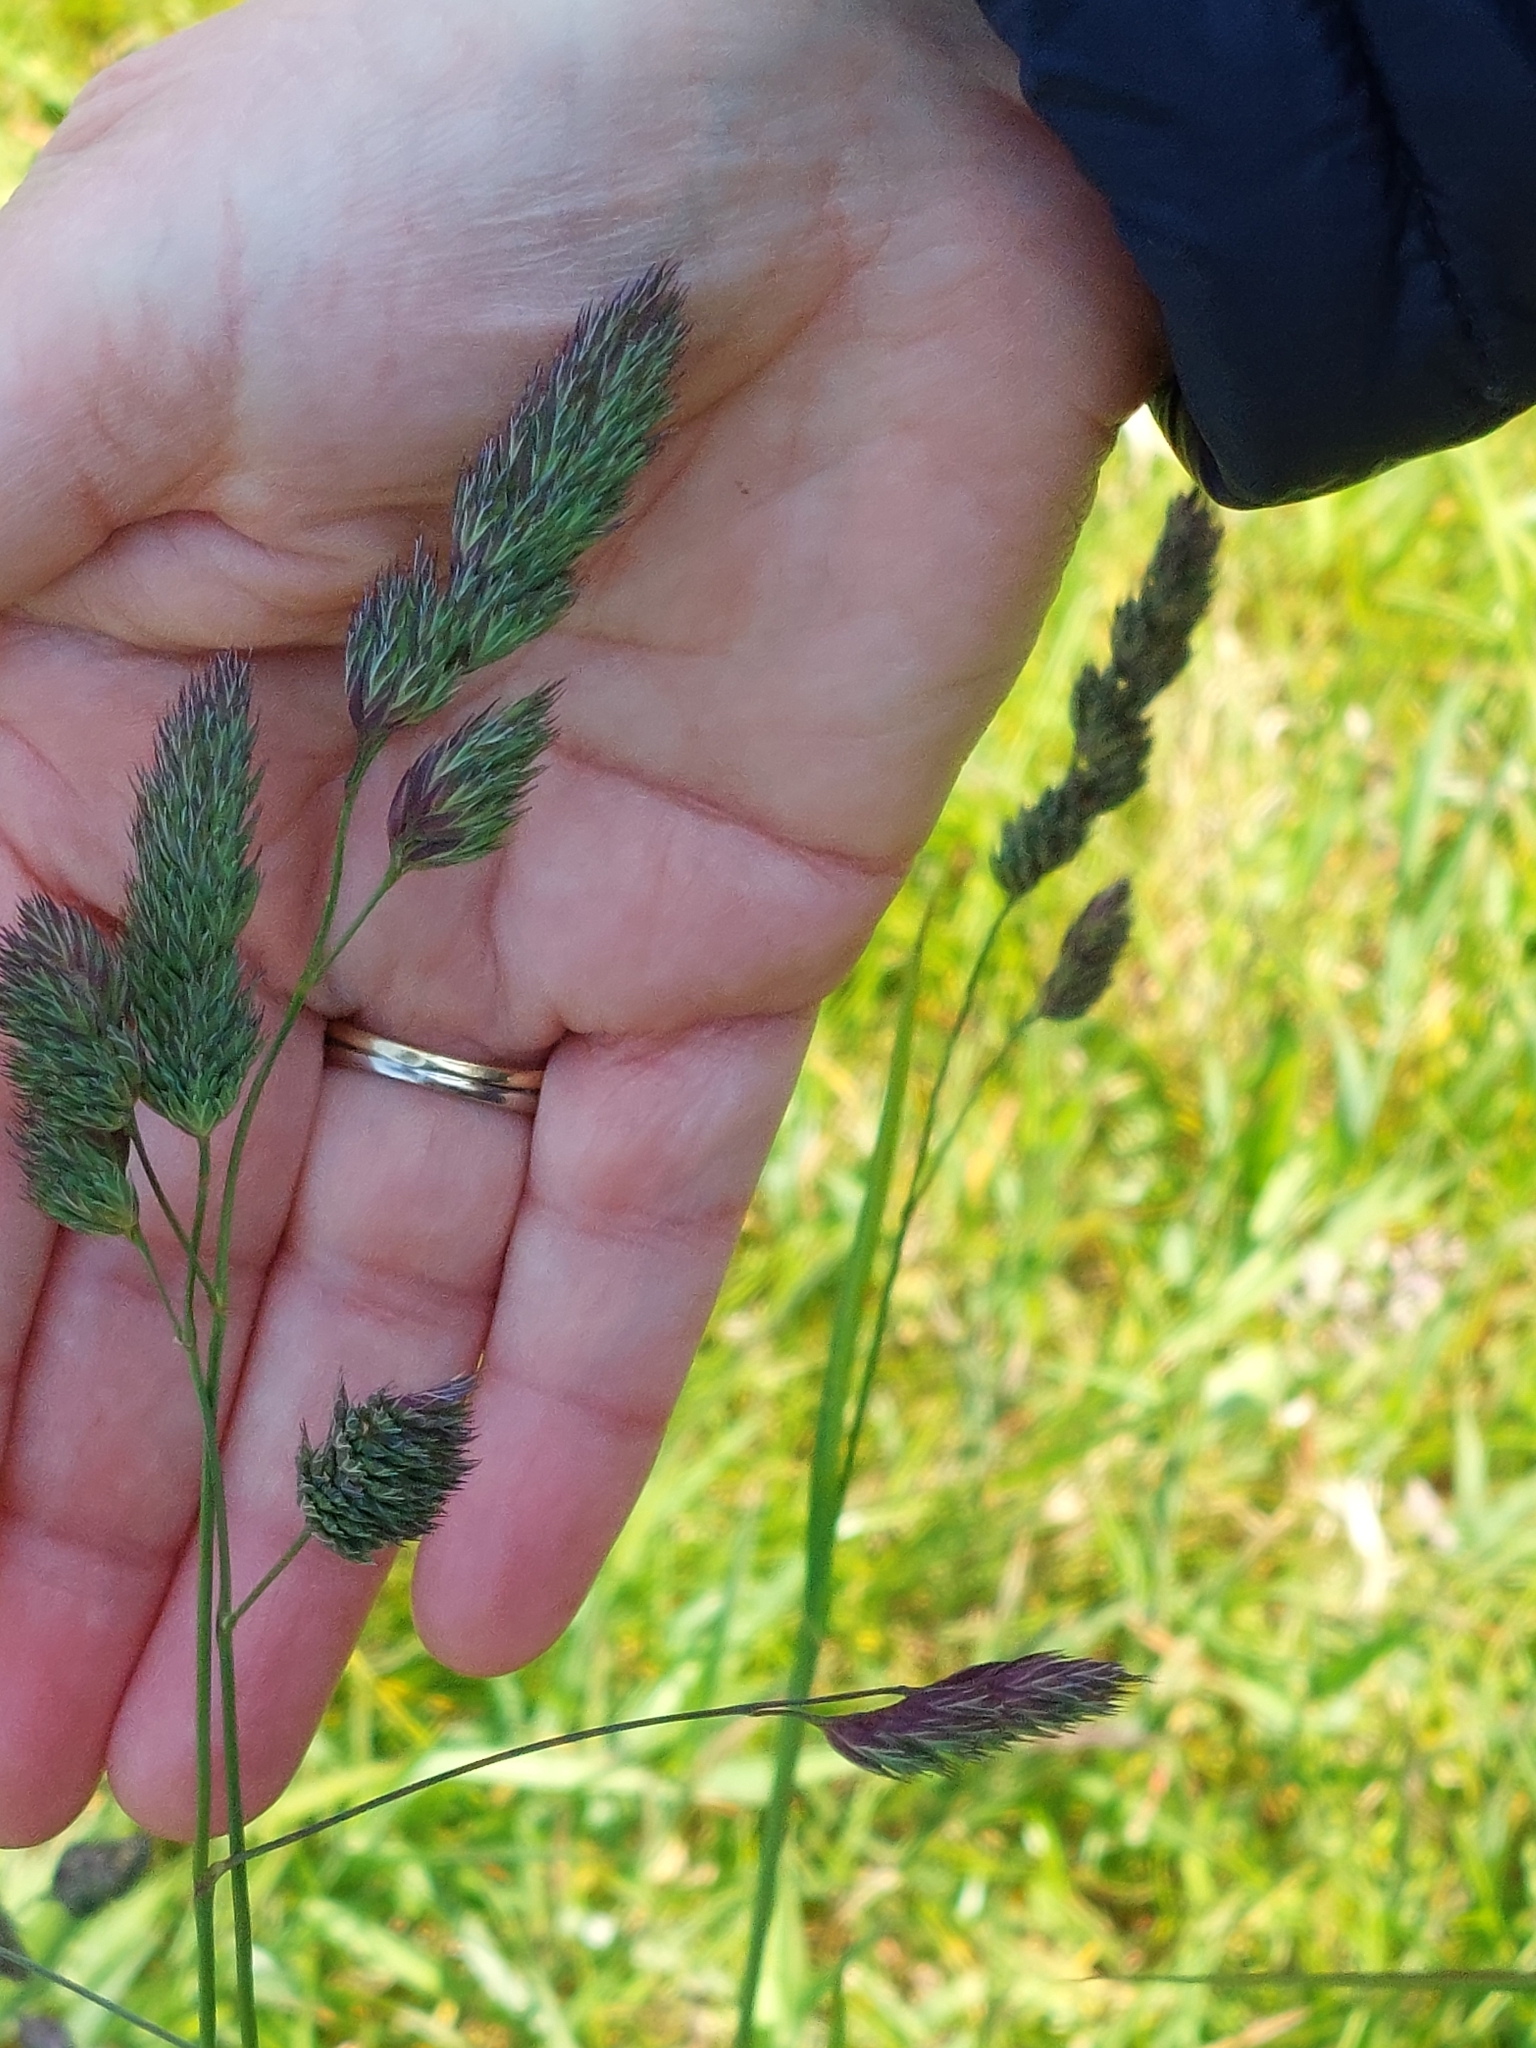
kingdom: Plantae
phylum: Tracheophyta
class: Liliopsida
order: Poales
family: Poaceae
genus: Dactylis
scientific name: Dactylis glomerata
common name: Orchardgrass
